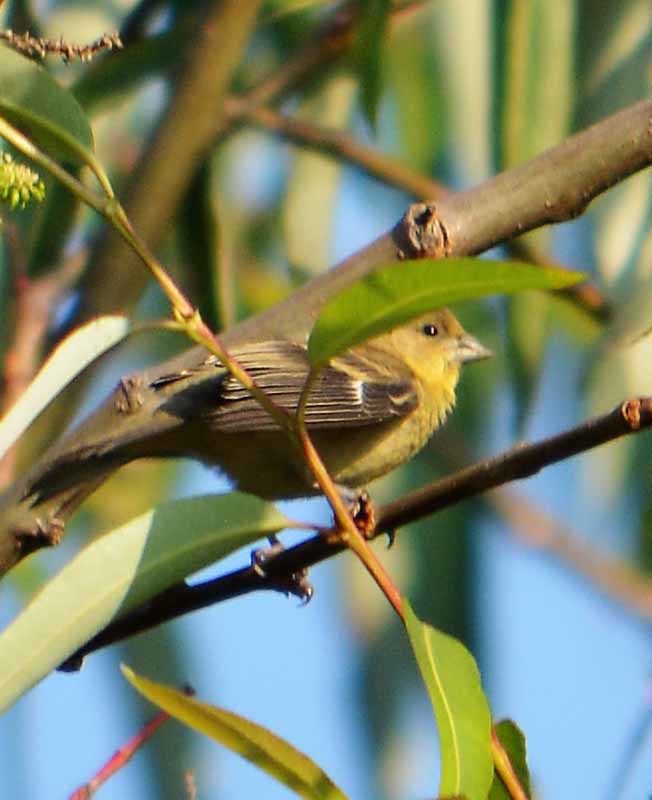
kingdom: Animalia
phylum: Chordata
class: Aves
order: Passeriformes
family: Fringillidae
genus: Spinus
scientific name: Spinus psaltria
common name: Lesser goldfinch
